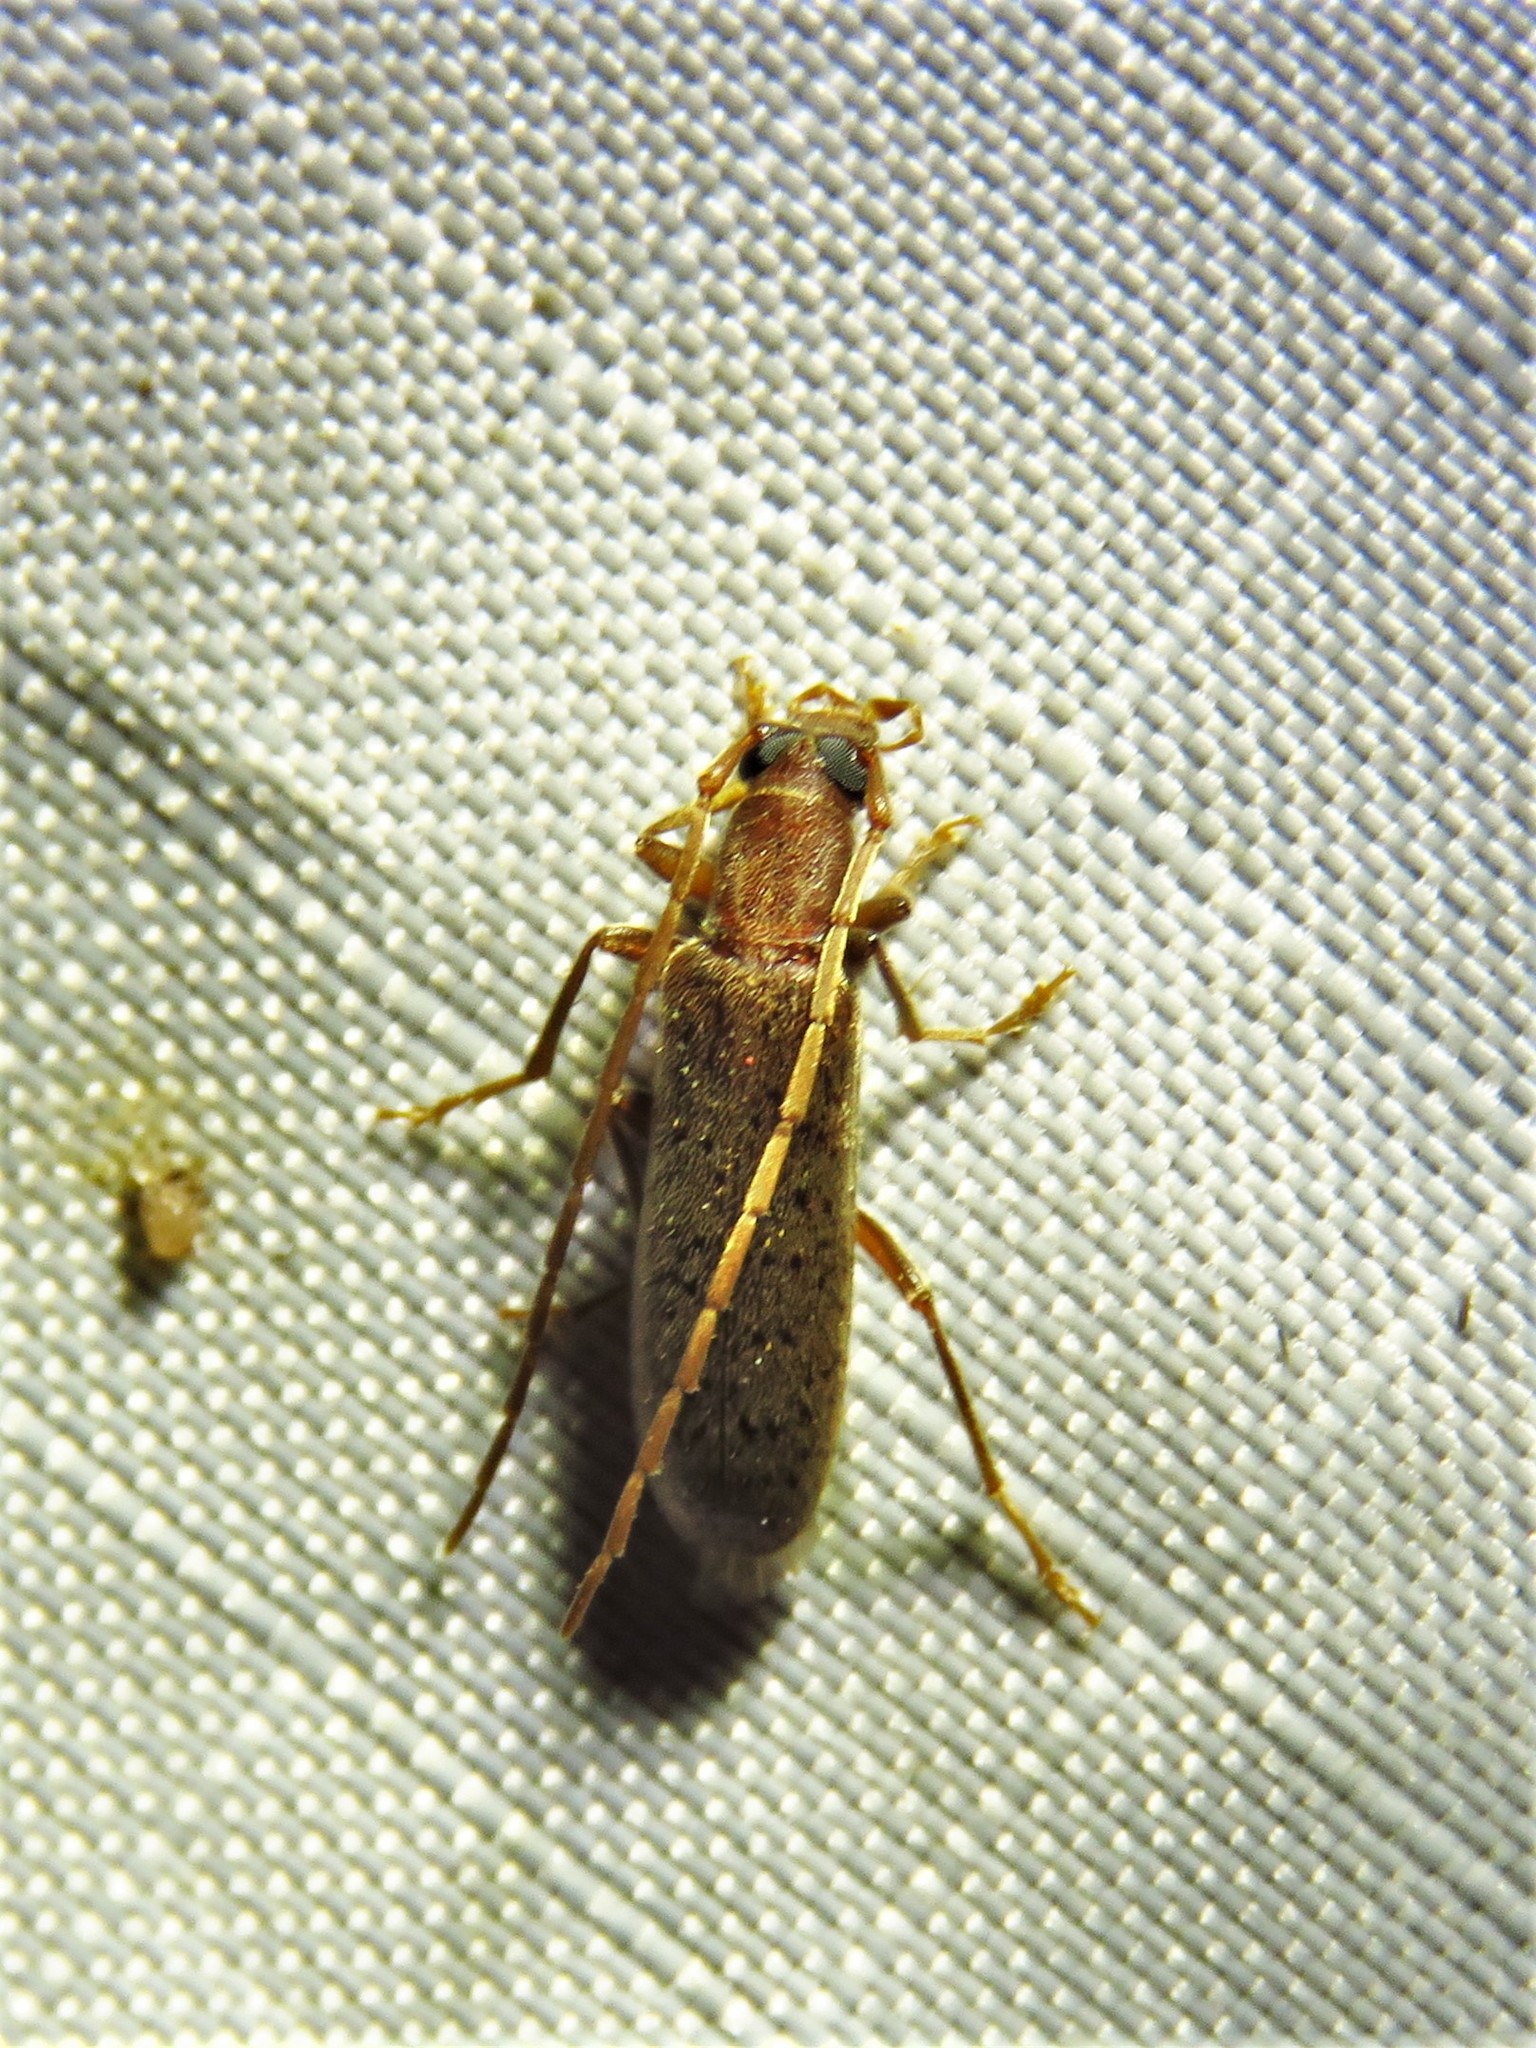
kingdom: Animalia
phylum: Arthropoda
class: Insecta
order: Coleoptera
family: Oedemeridae
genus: Sparedrus
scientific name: Sparedrus aspersus
